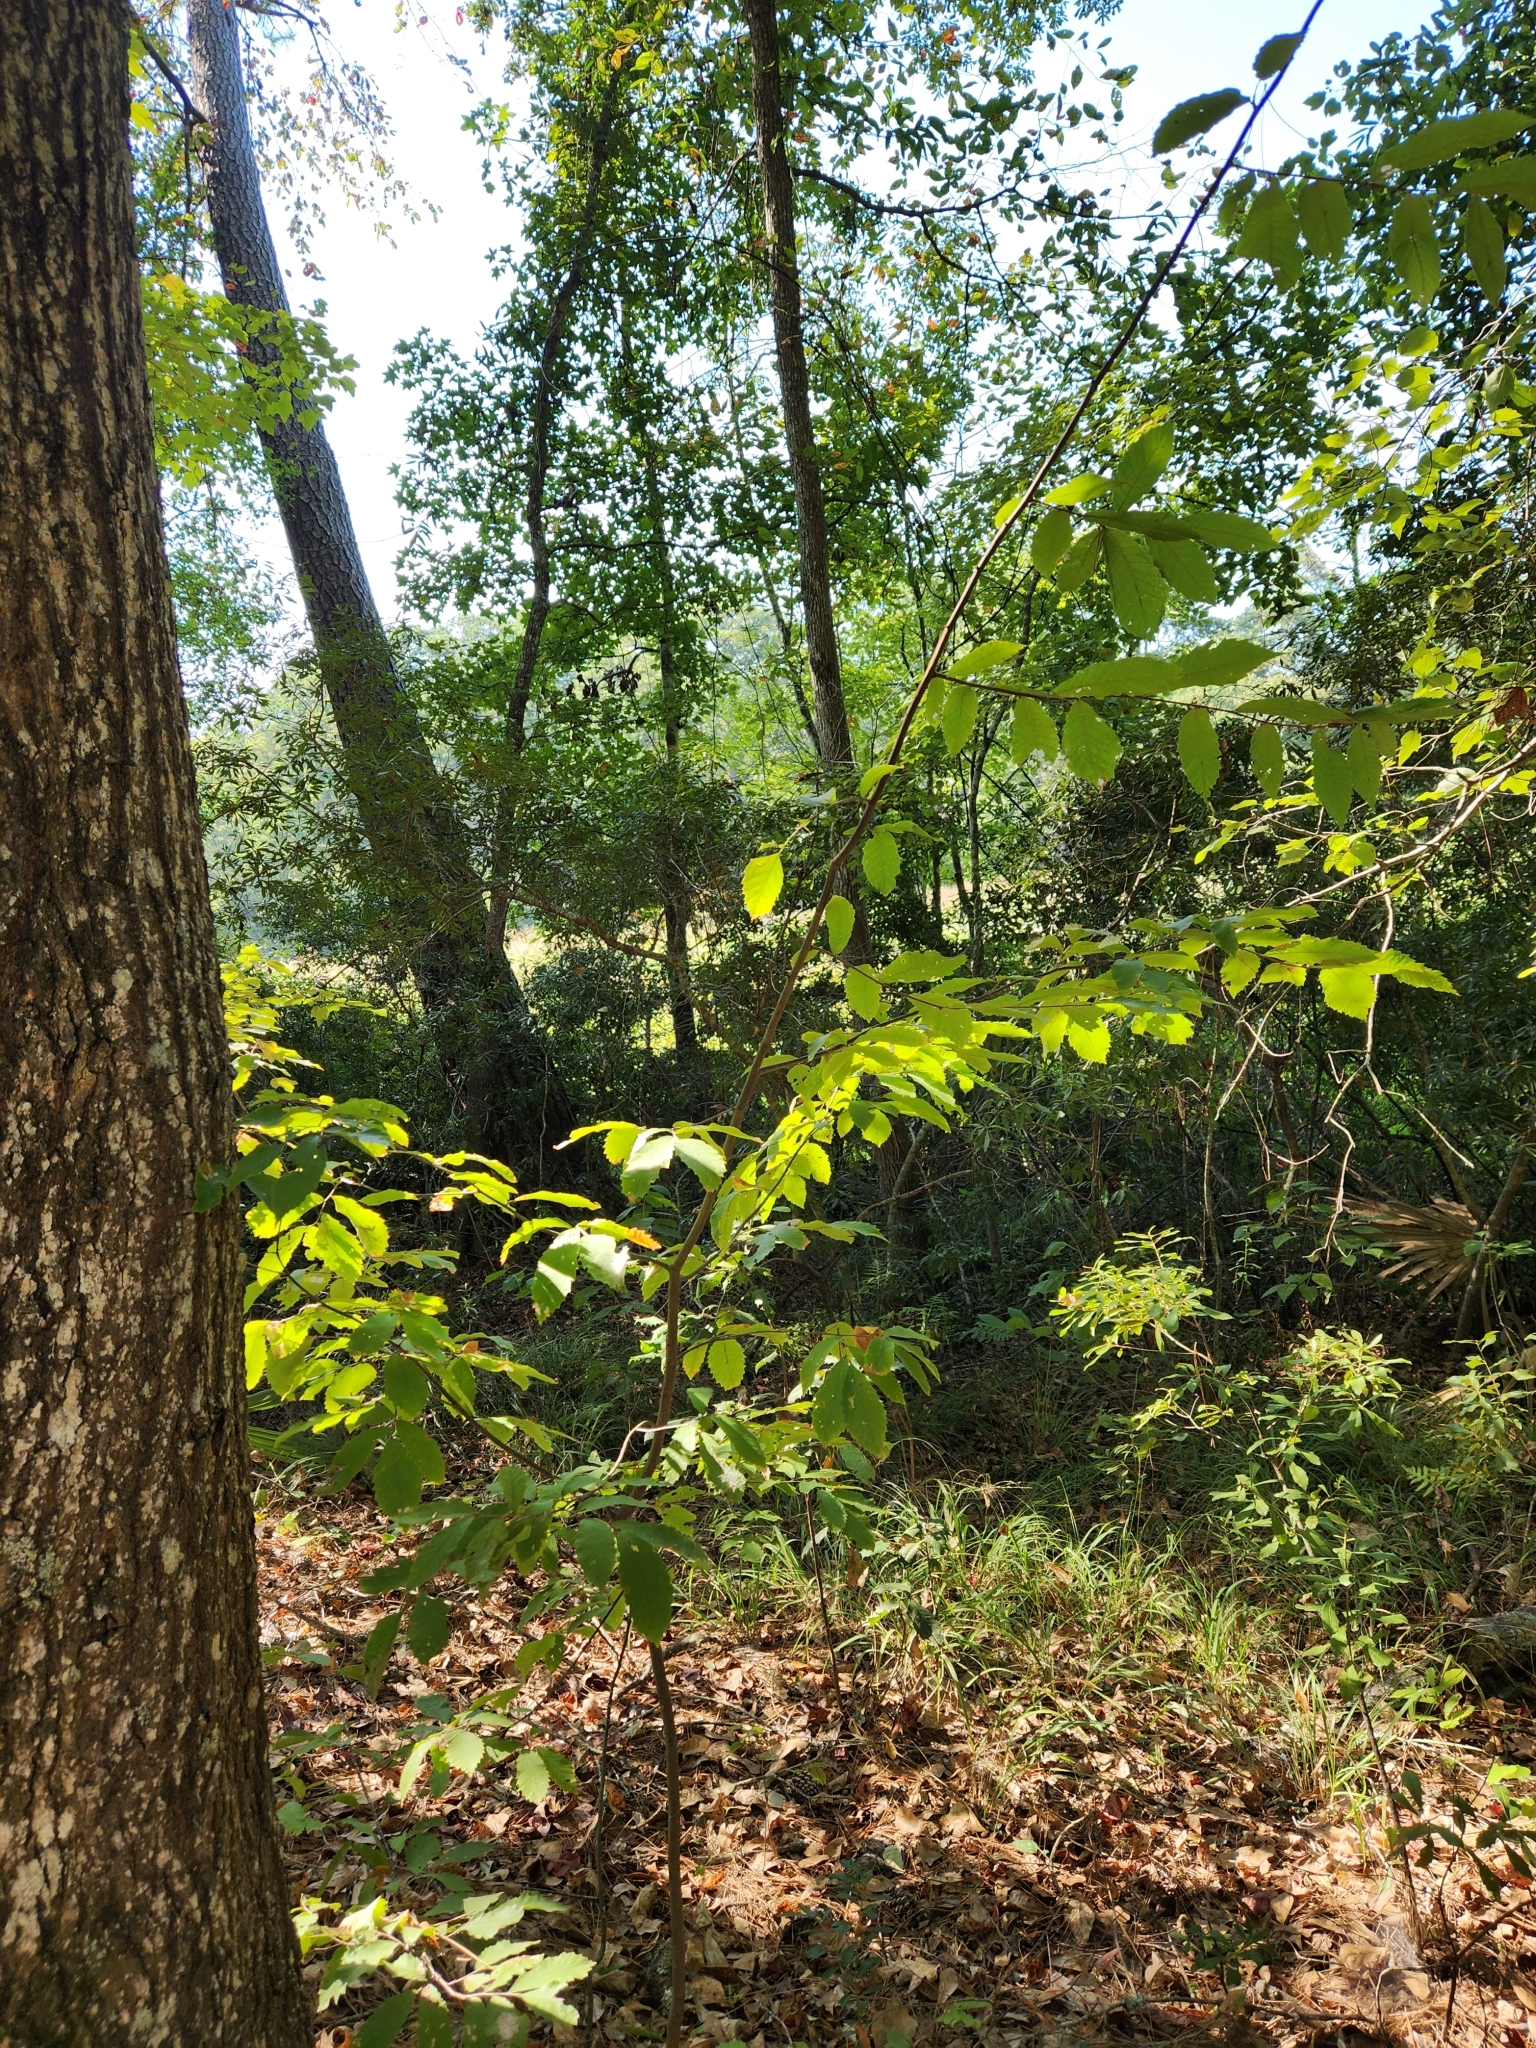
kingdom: Plantae
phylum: Tracheophyta
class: Magnoliopsida
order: Fagales
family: Fagaceae
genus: Castanea
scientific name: Castanea pumila
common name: Chinkapin
